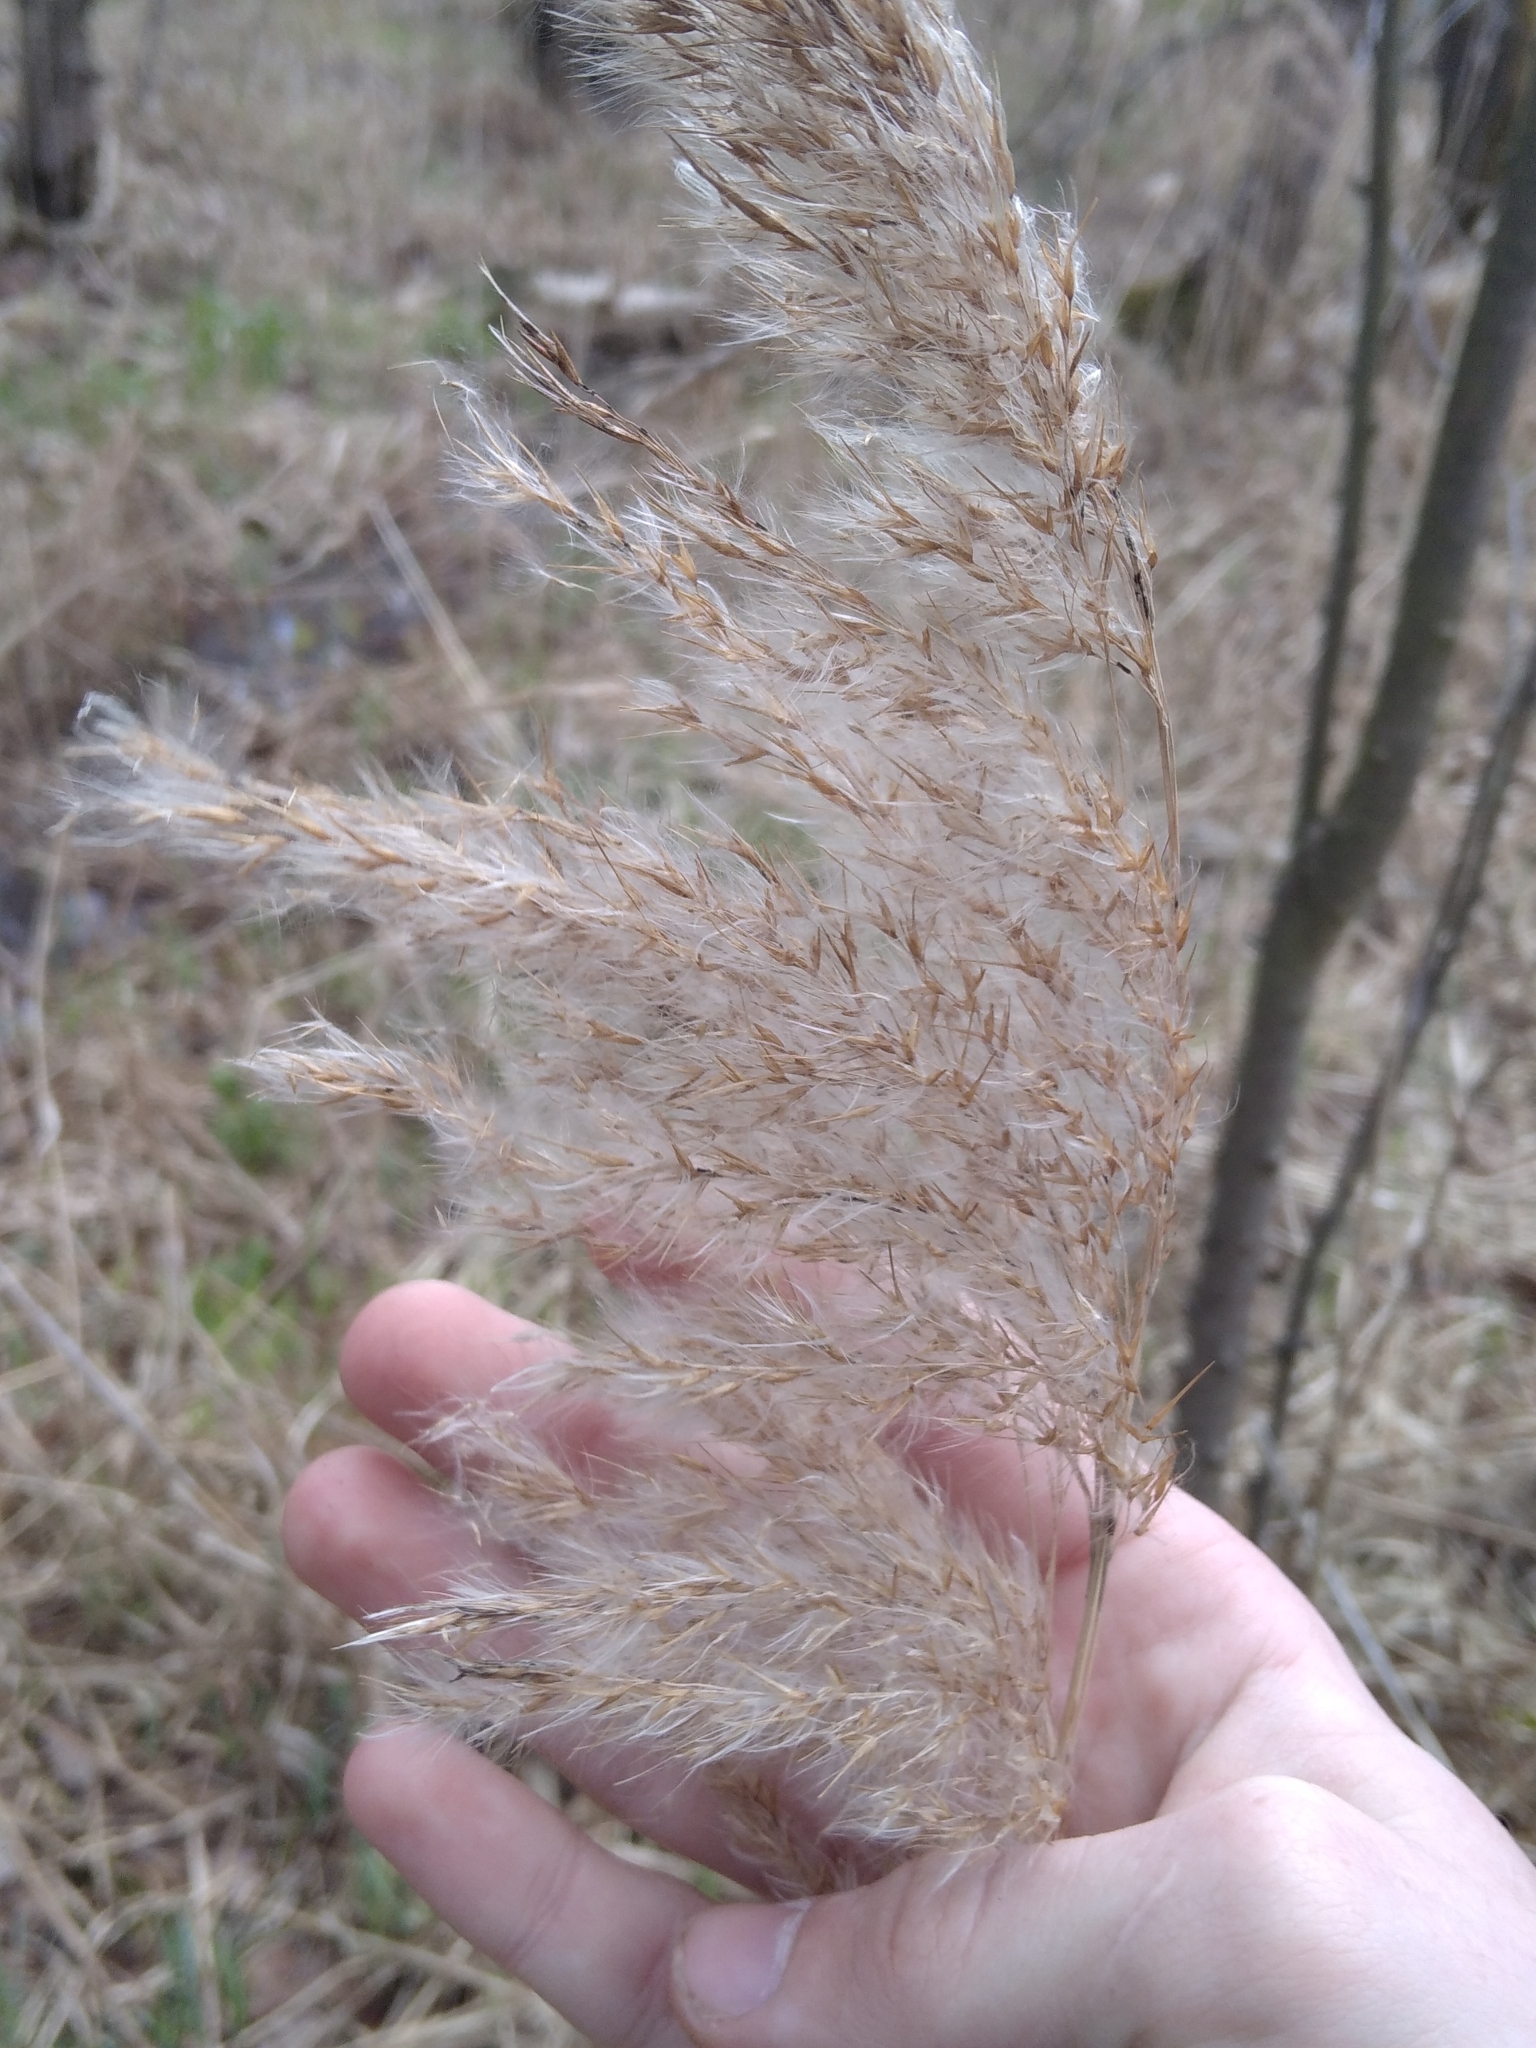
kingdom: Plantae
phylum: Tracheophyta
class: Liliopsida
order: Poales
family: Poaceae
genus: Phragmites
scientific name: Phragmites australis
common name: Common reed
